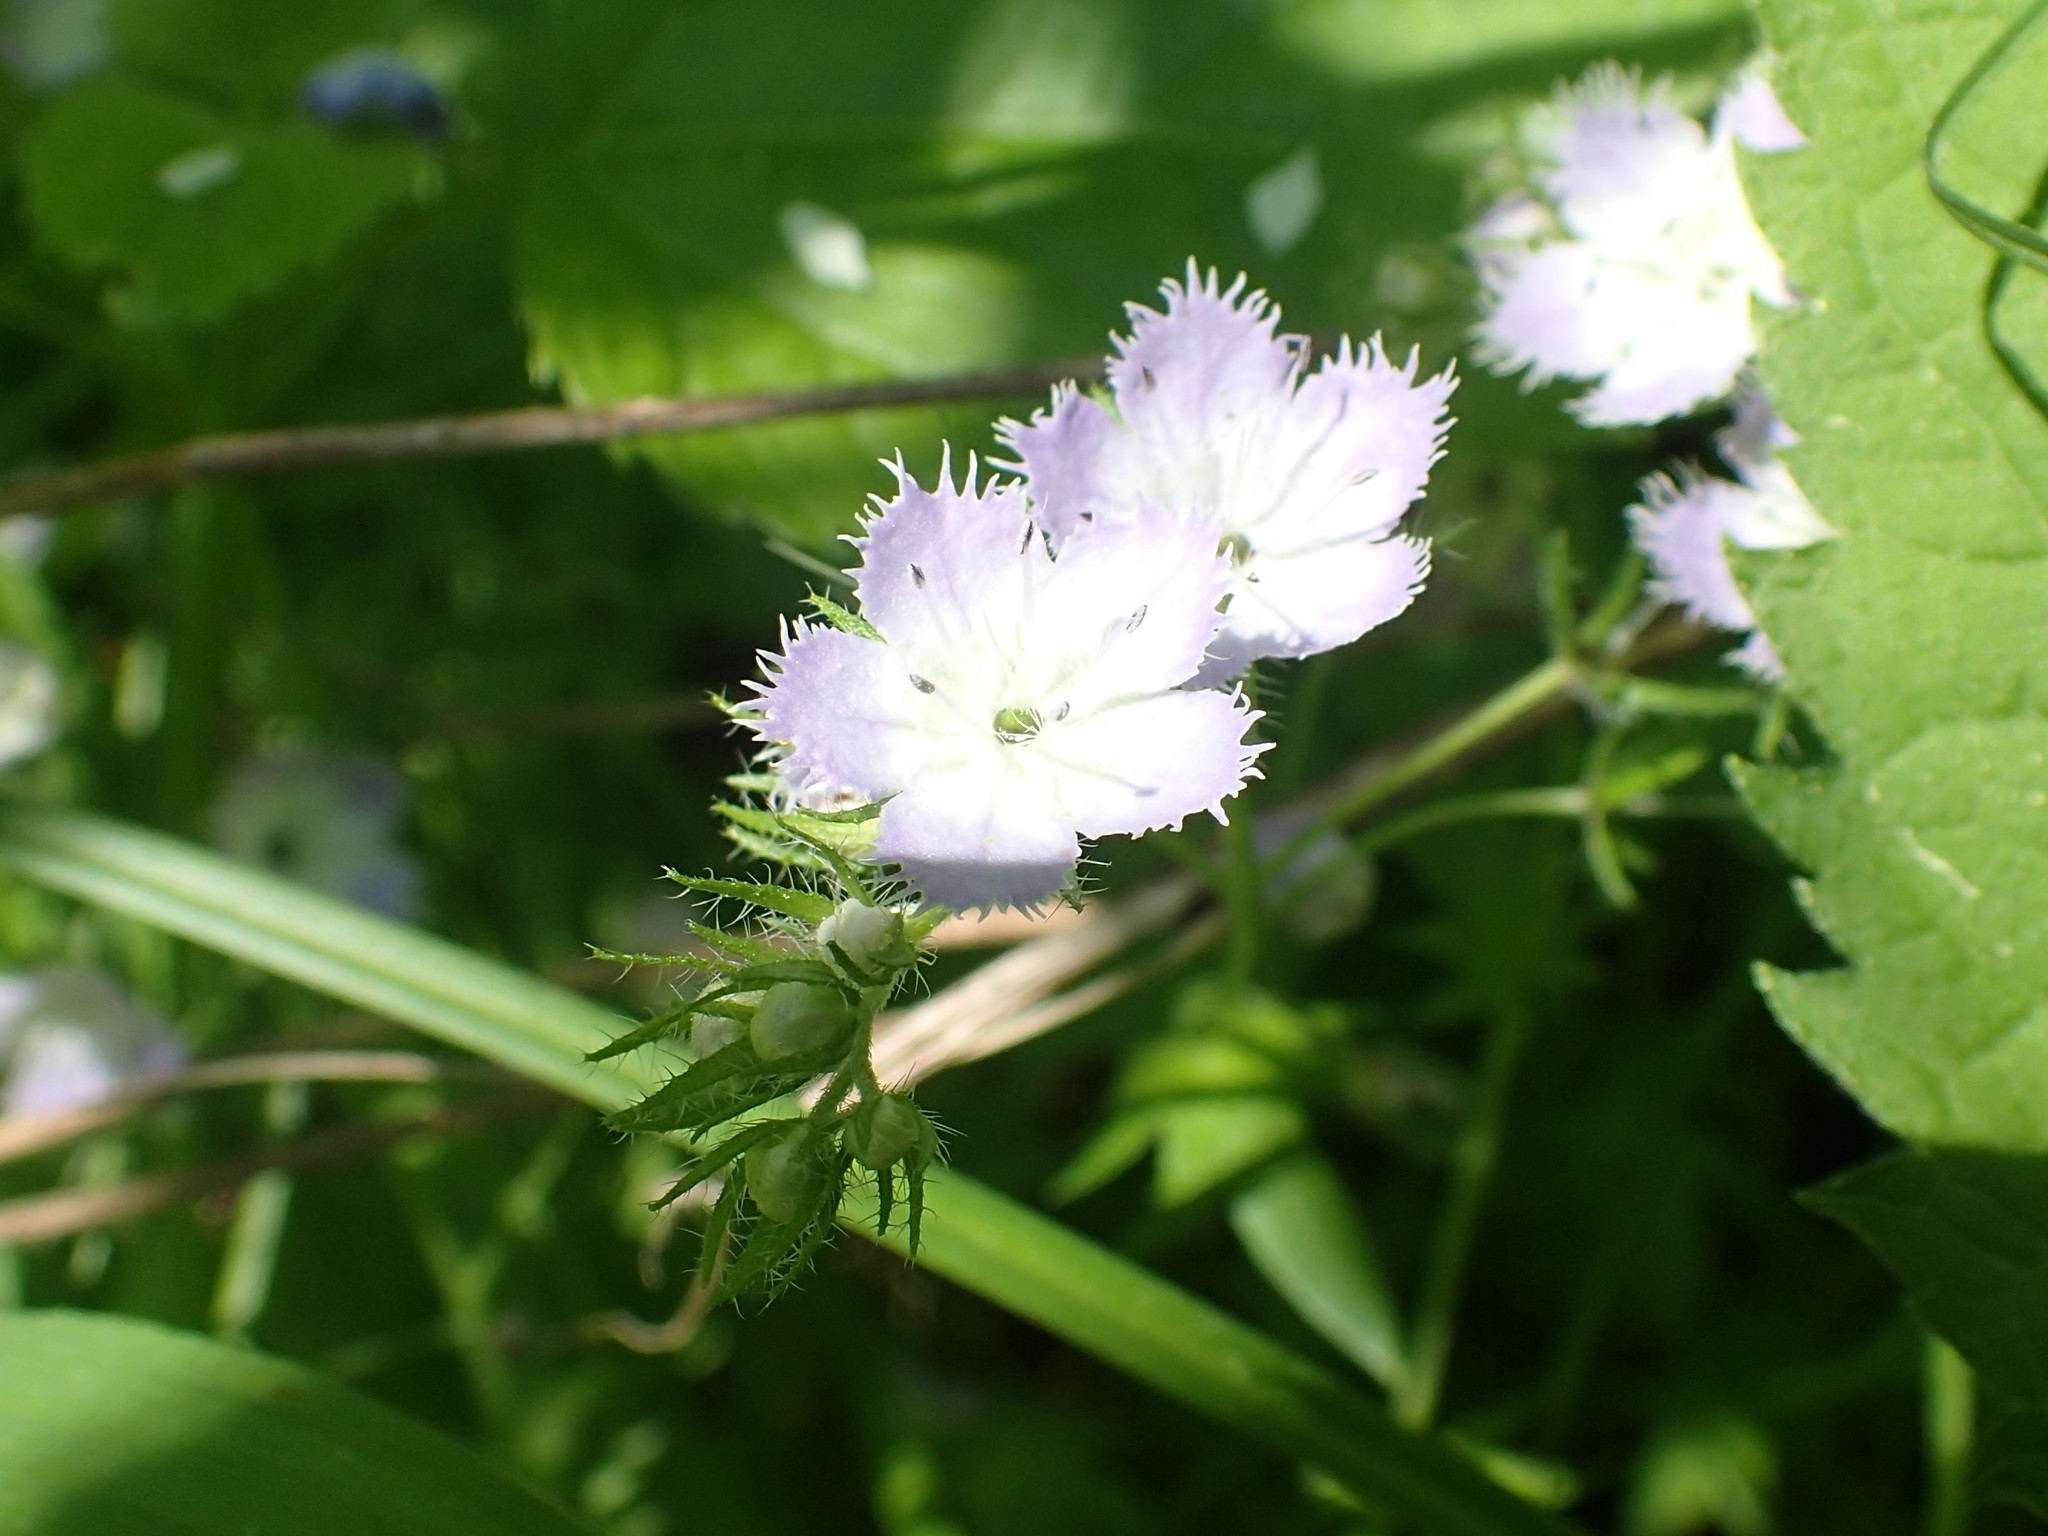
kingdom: Plantae
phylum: Tracheophyta
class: Magnoliopsida
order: Boraginales
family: Hydrophyllaceae
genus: Phacelia
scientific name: Phacelia purshii
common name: Miami-mist
